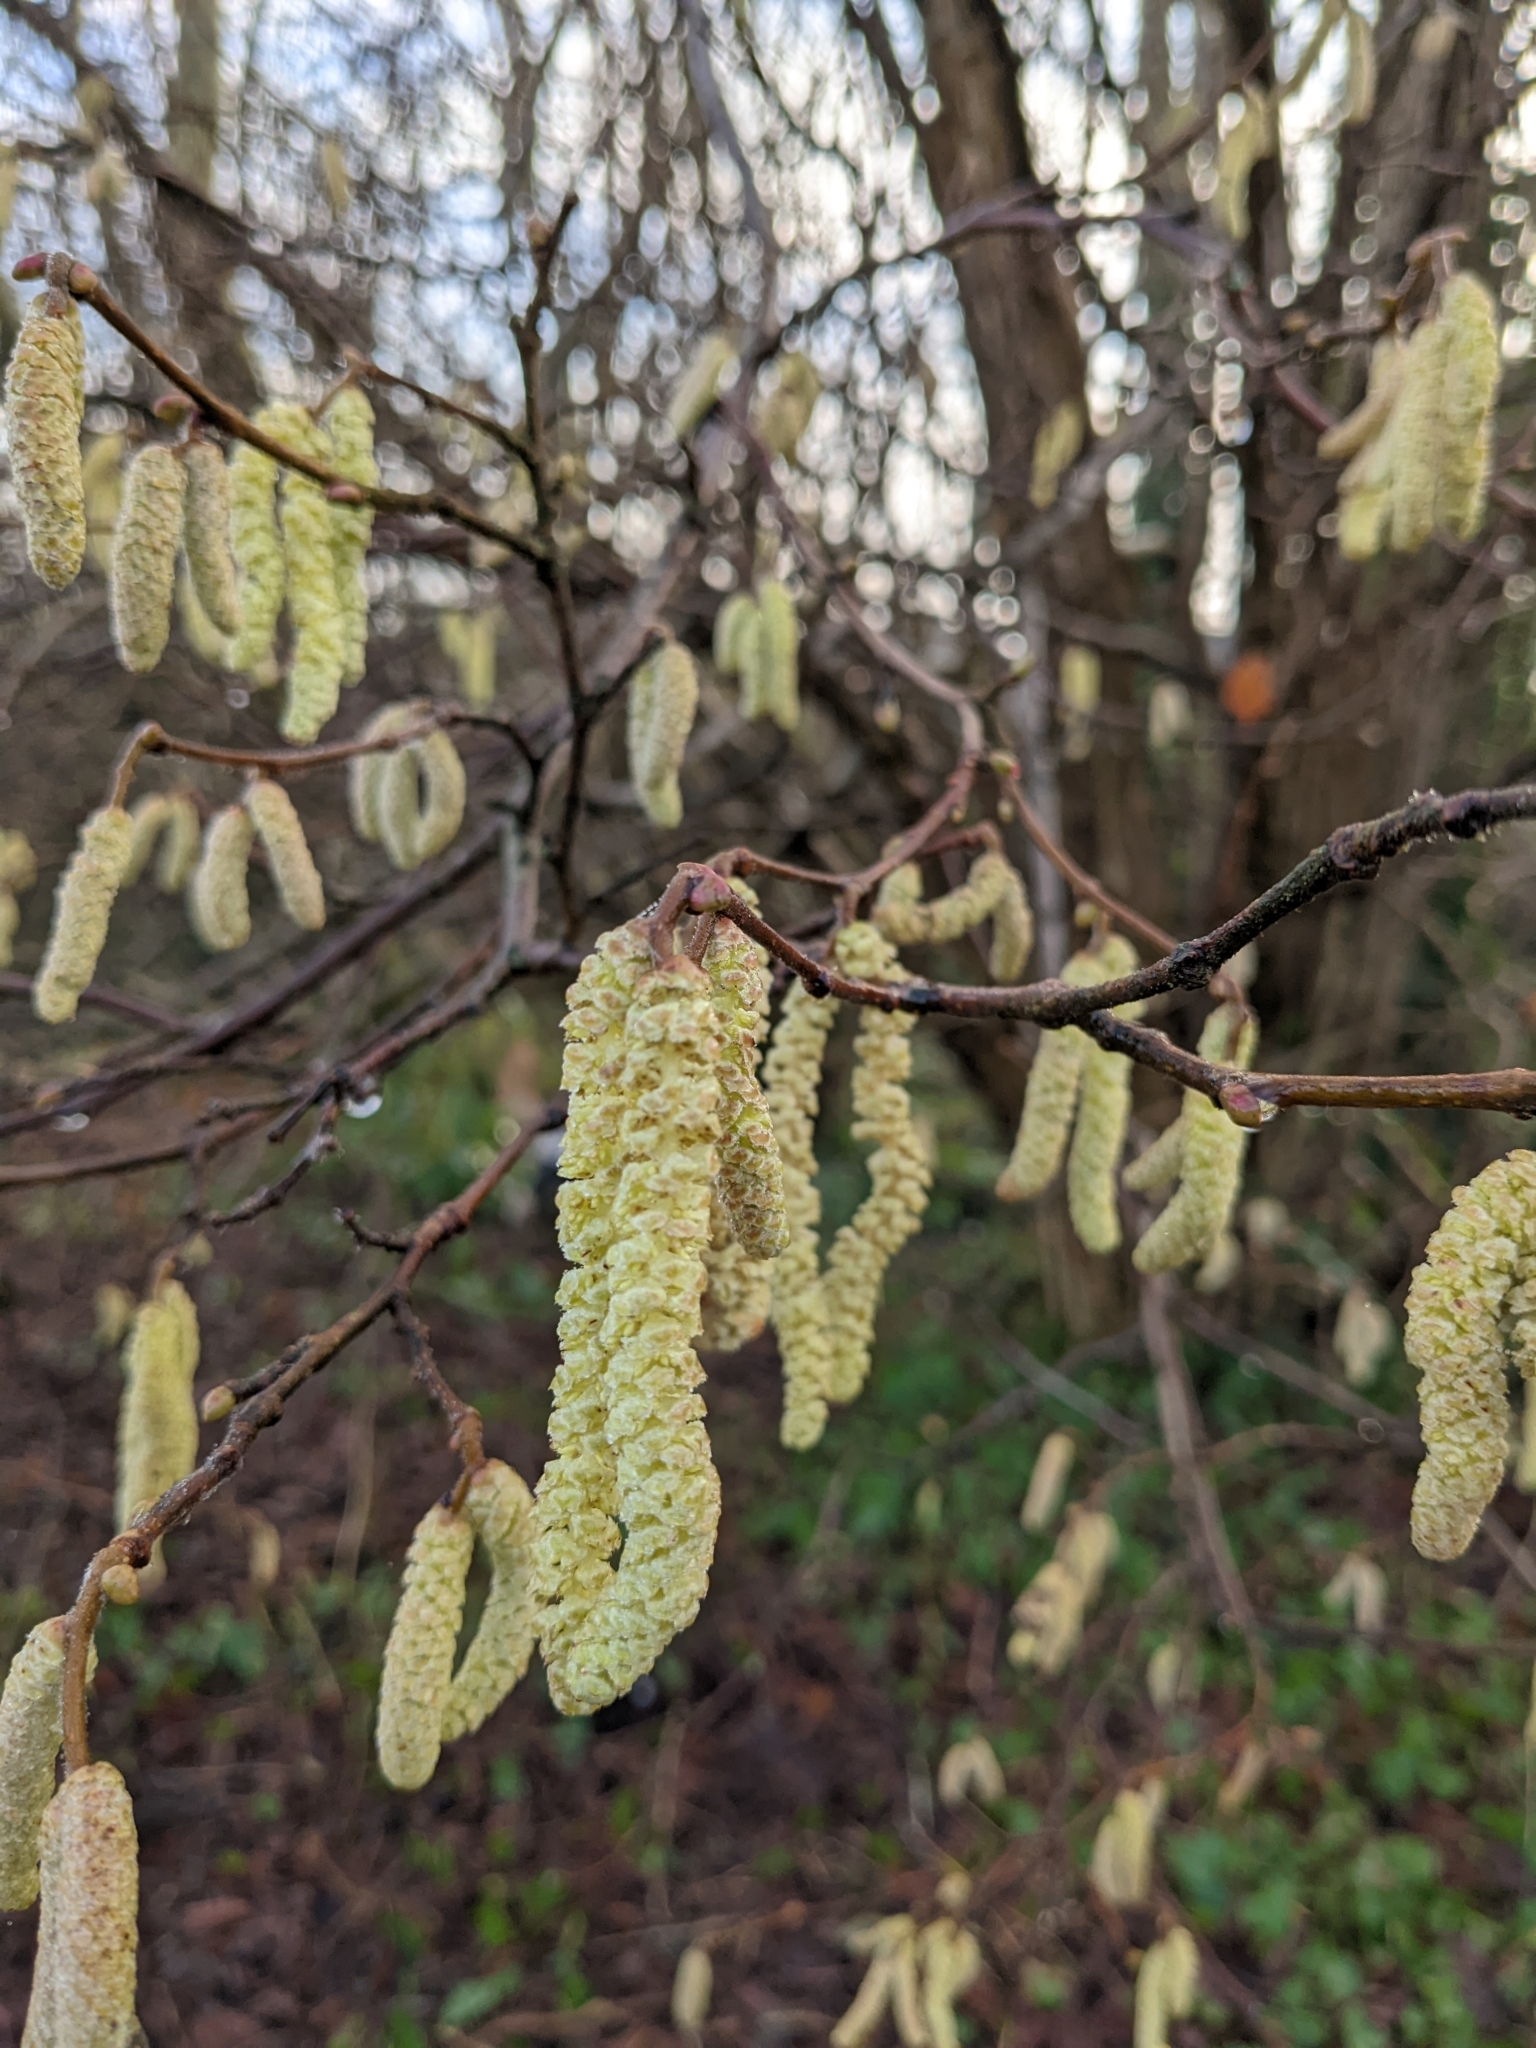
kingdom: Plantae
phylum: Tracheophyta
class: Magnoliopsida
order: Fagales
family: Betulaceae
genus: Corylus
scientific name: Corylus avellana
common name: European hazel
